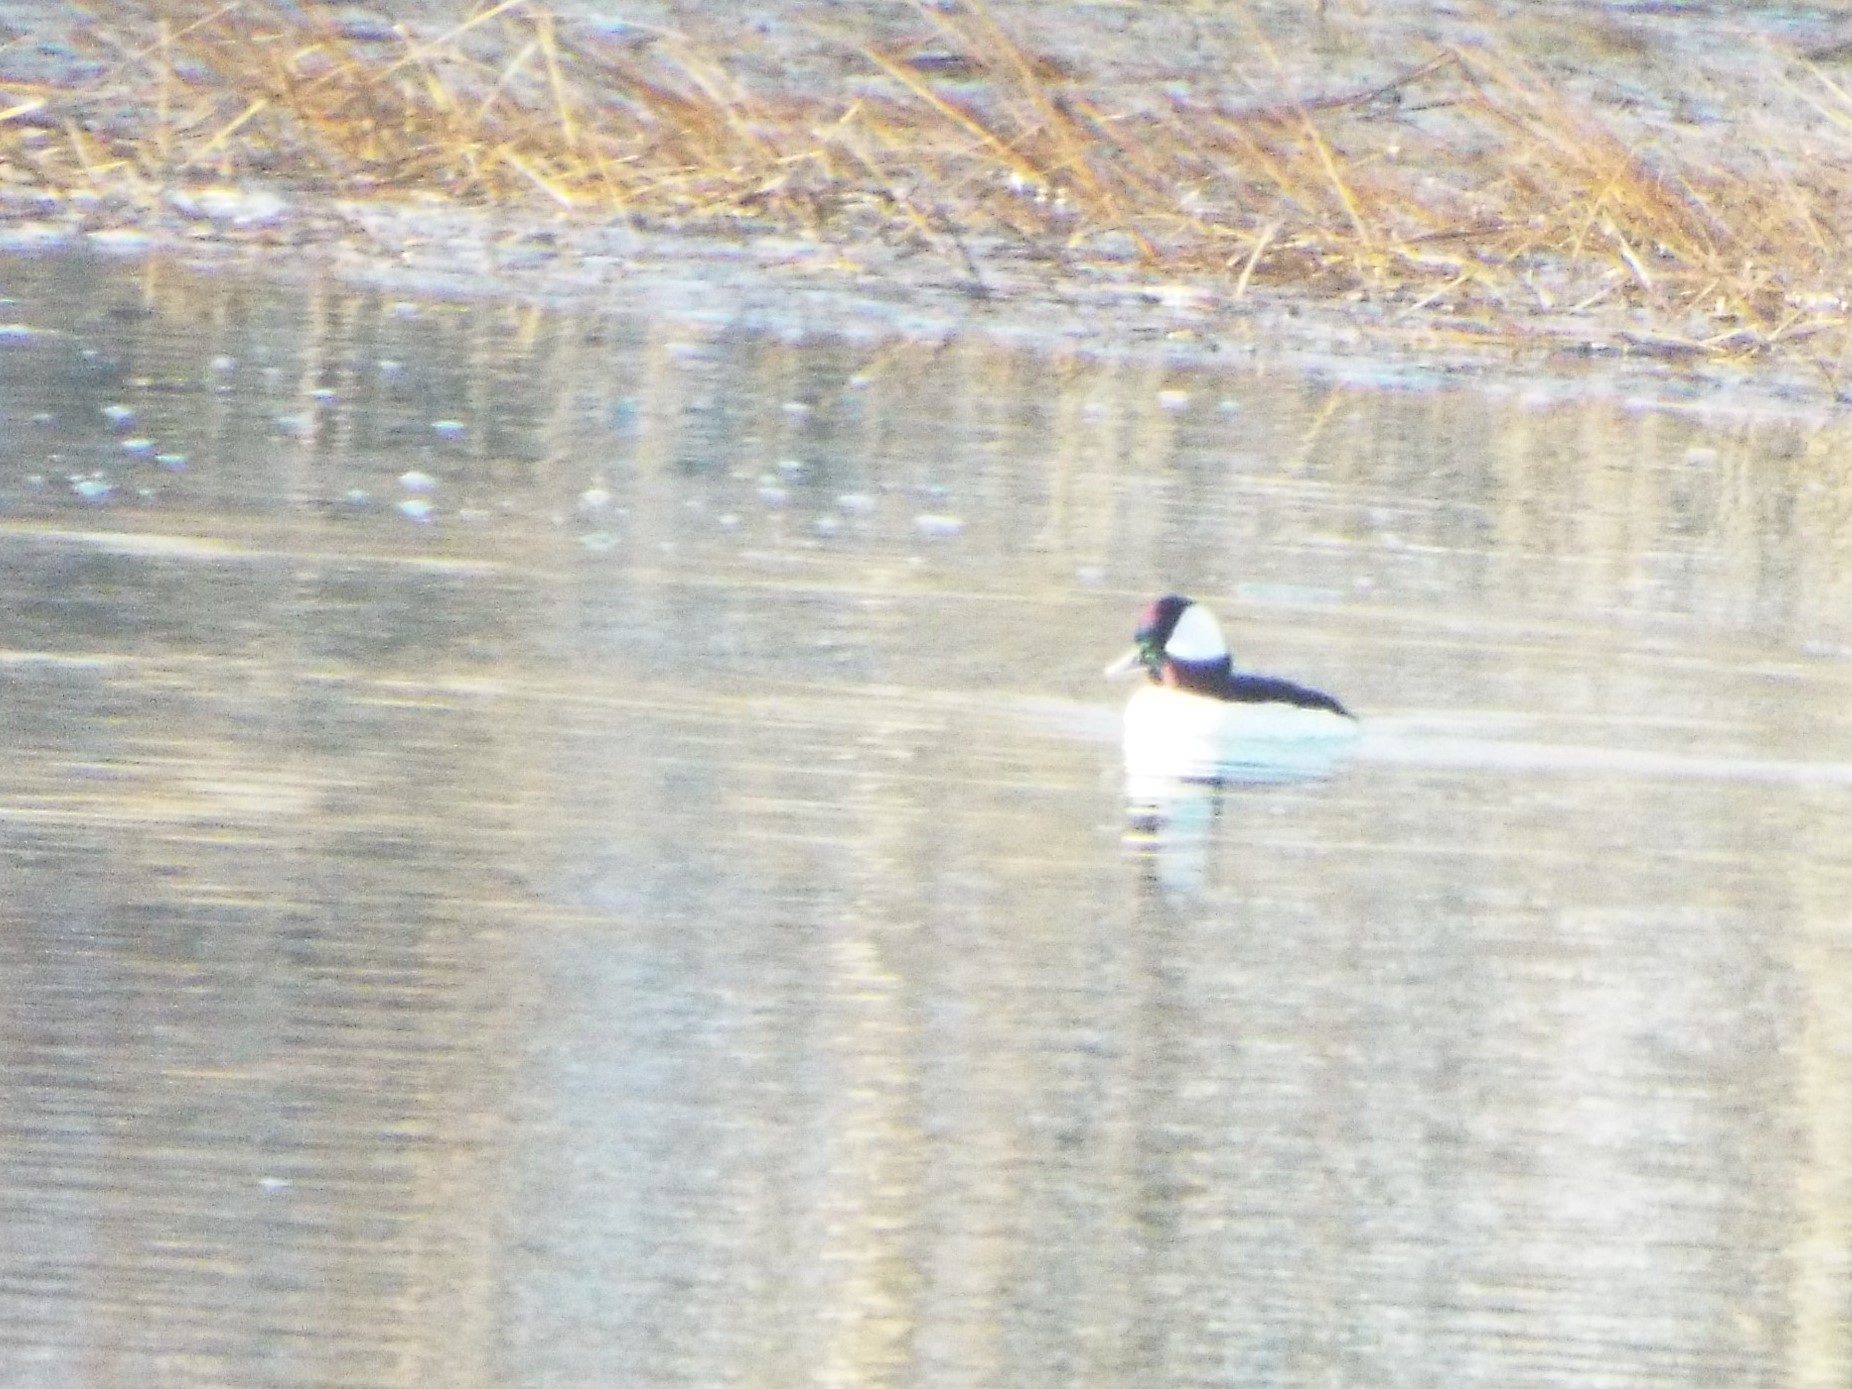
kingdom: Animalia
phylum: Chordata
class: Aves
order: Anseriformes
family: Anatidae
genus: Bucephala
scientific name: Bucephala albeola
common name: Bufflehead
